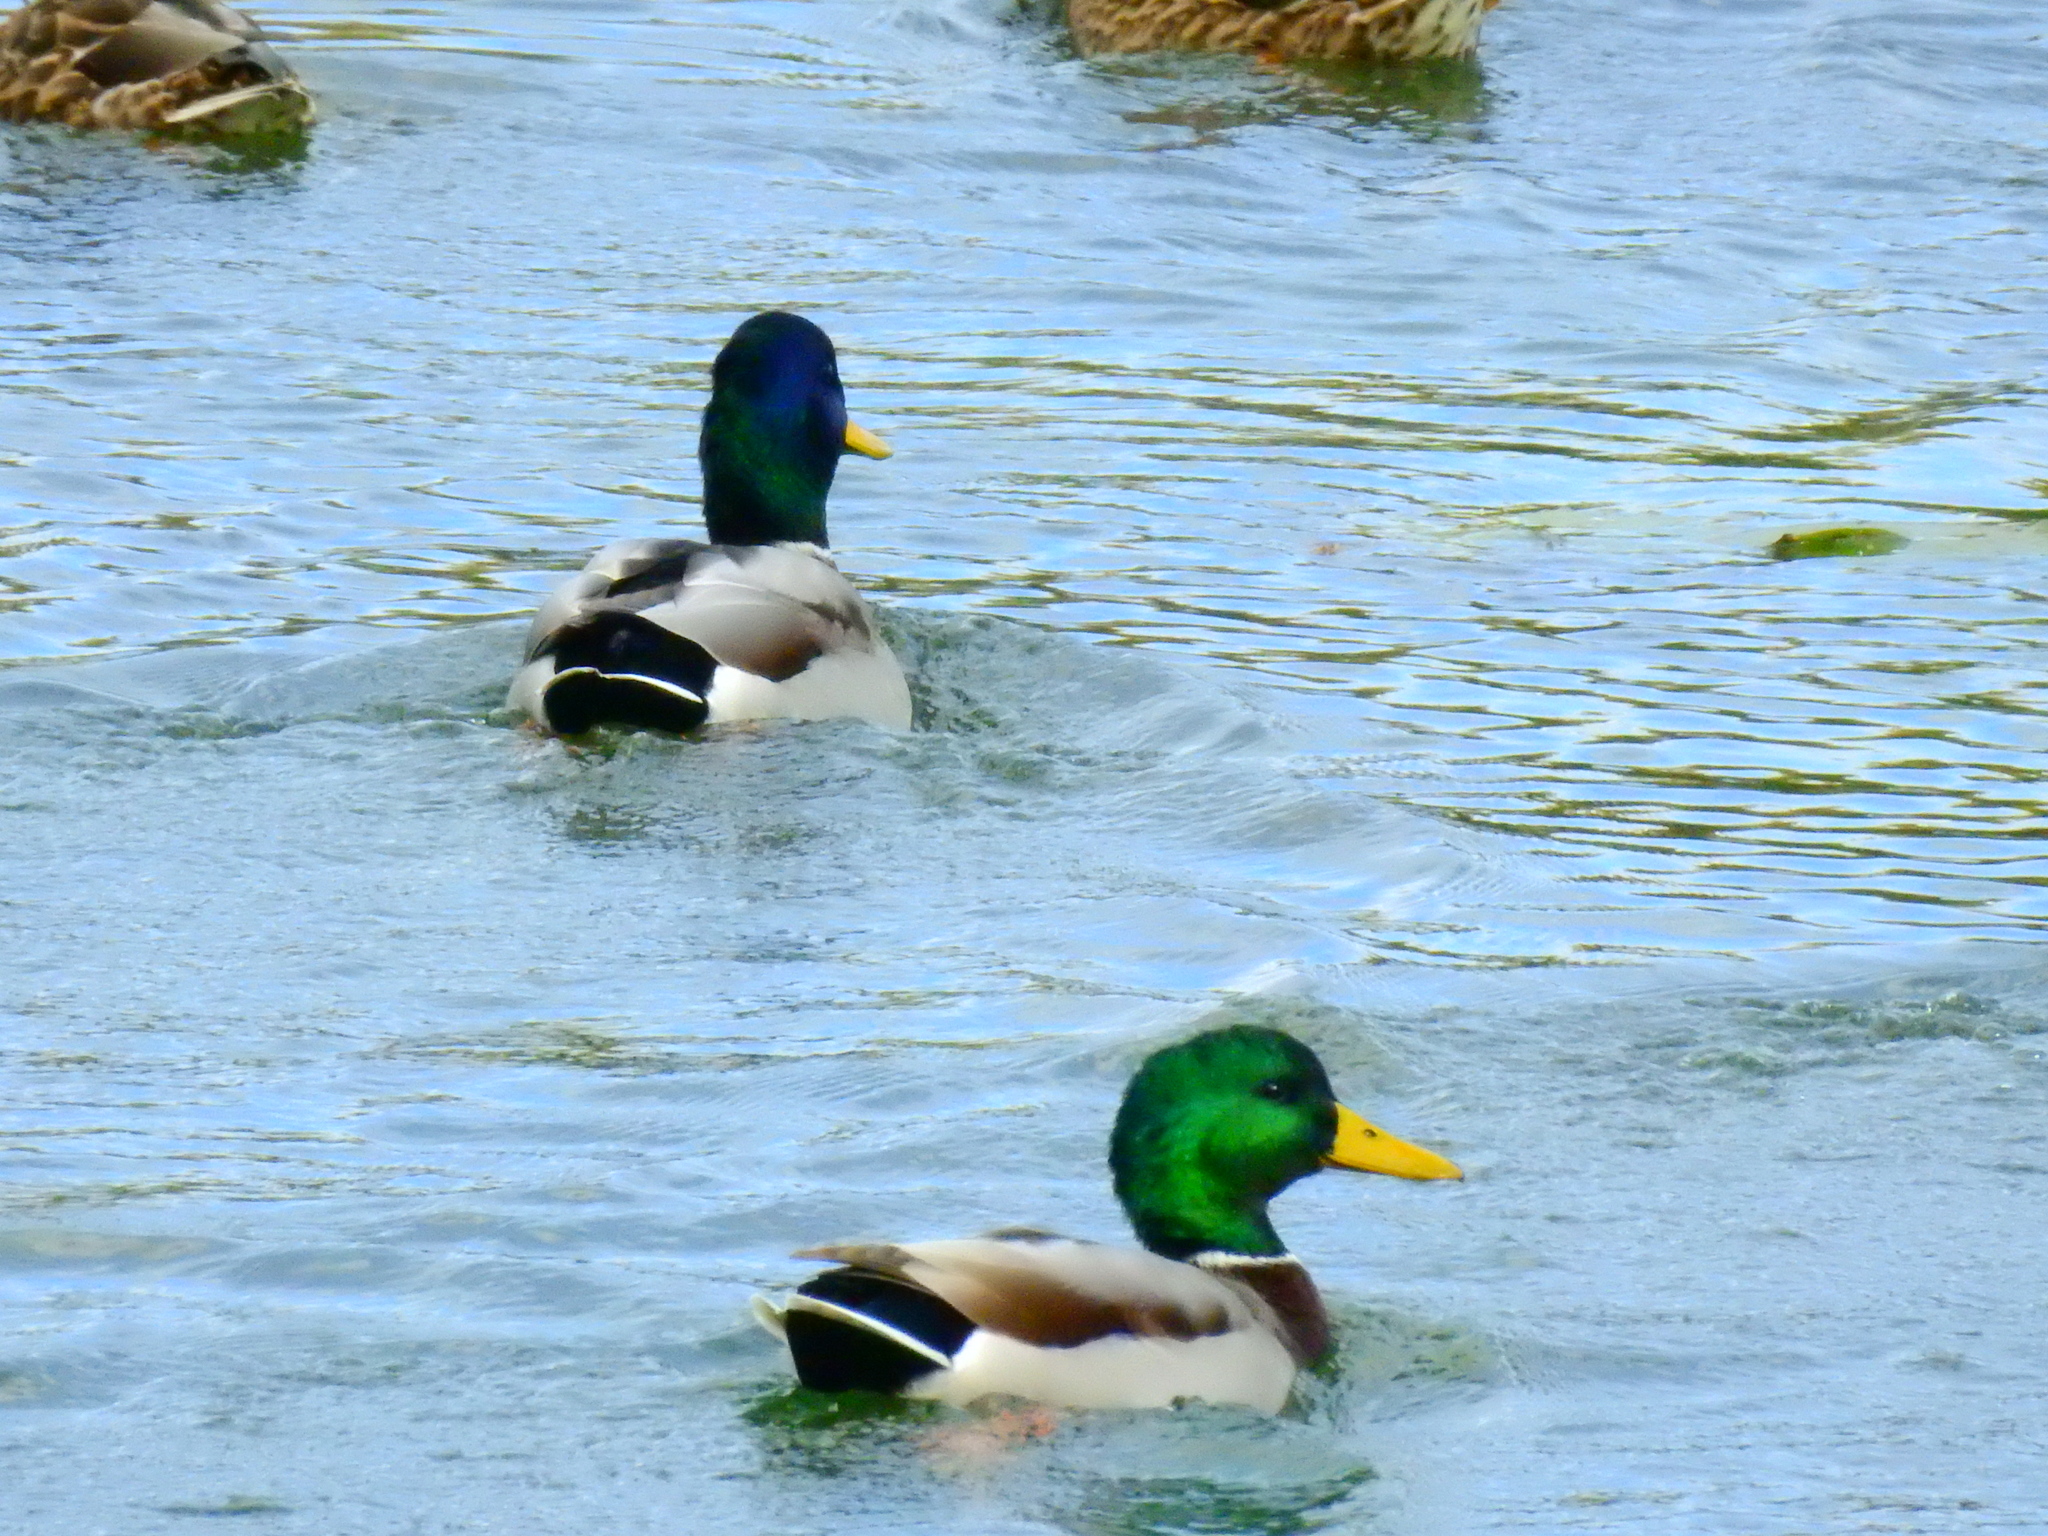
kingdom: Animalia
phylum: Chordata
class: Aves
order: Anseriformes
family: Anatidae
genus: Anas
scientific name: Anas platyrhynchos
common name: Mallard
